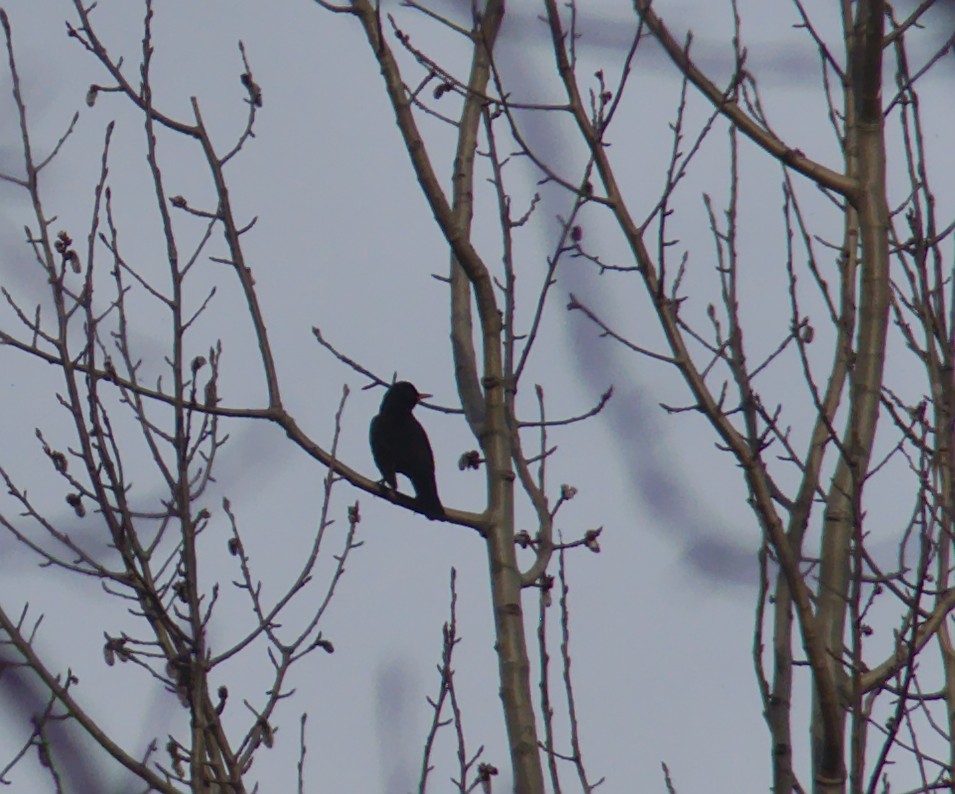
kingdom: Animalia
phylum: Chordata
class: Aves
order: Passeriformes
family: Turdidae
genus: Turdus
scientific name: Turdus merula
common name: Common blackbird
